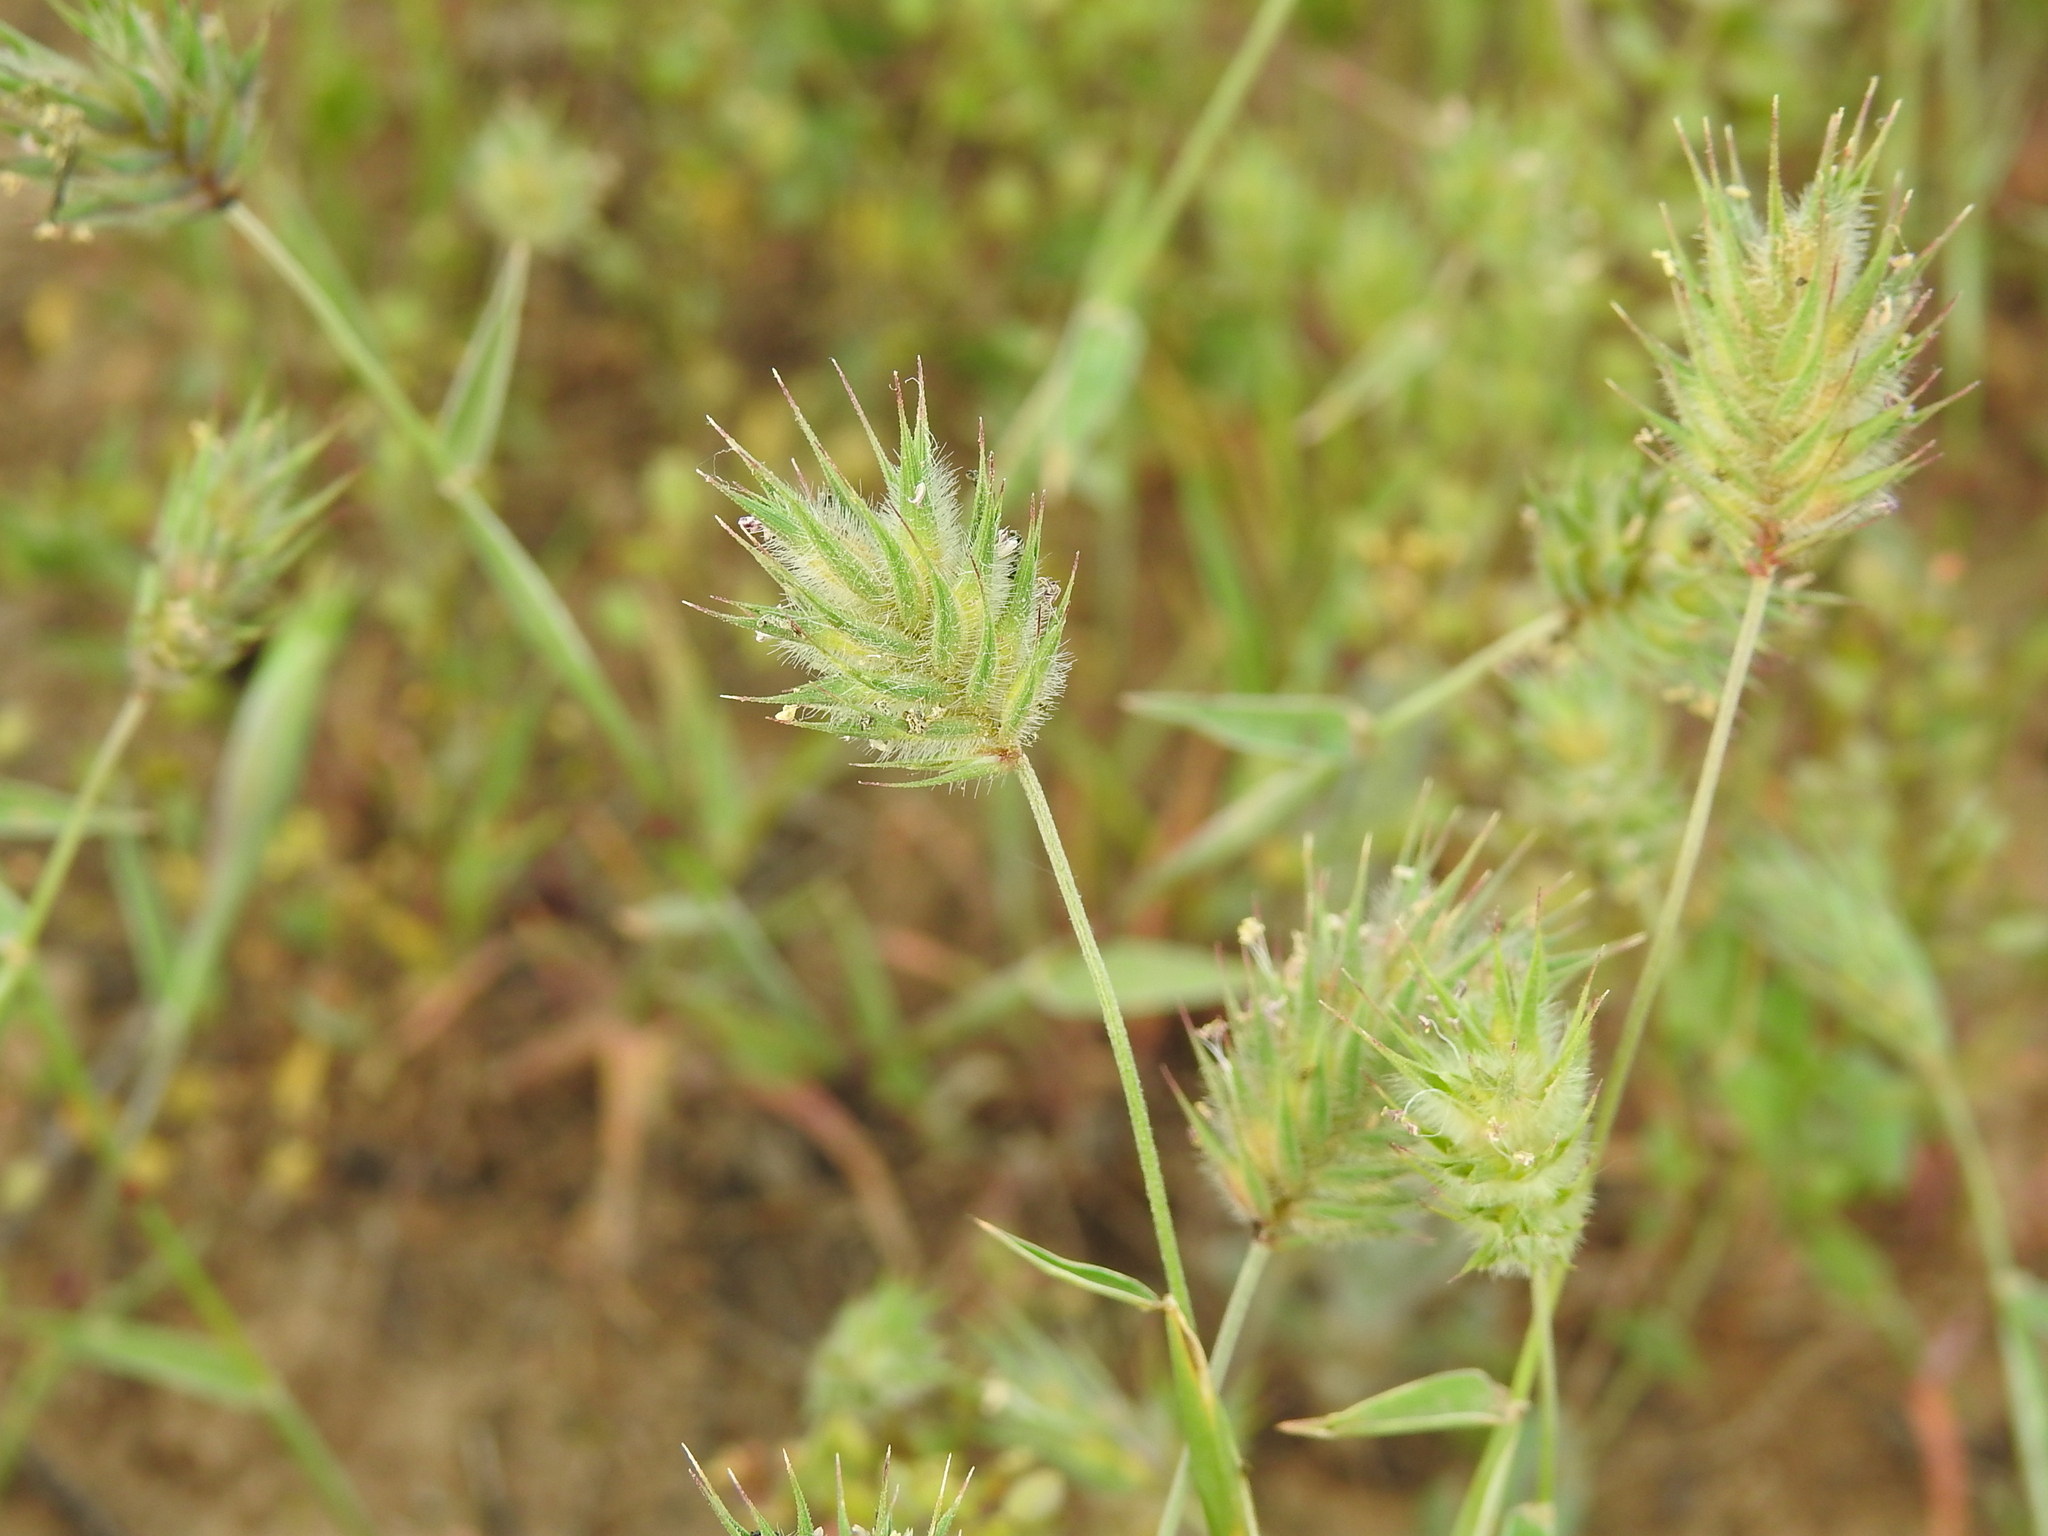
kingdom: Plantae
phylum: Tracheophyta
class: Liliopsida
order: Poales
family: Poaceae
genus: Eremopyrum
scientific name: Eremopyrum orientale
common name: Oriental false wheatgrass
